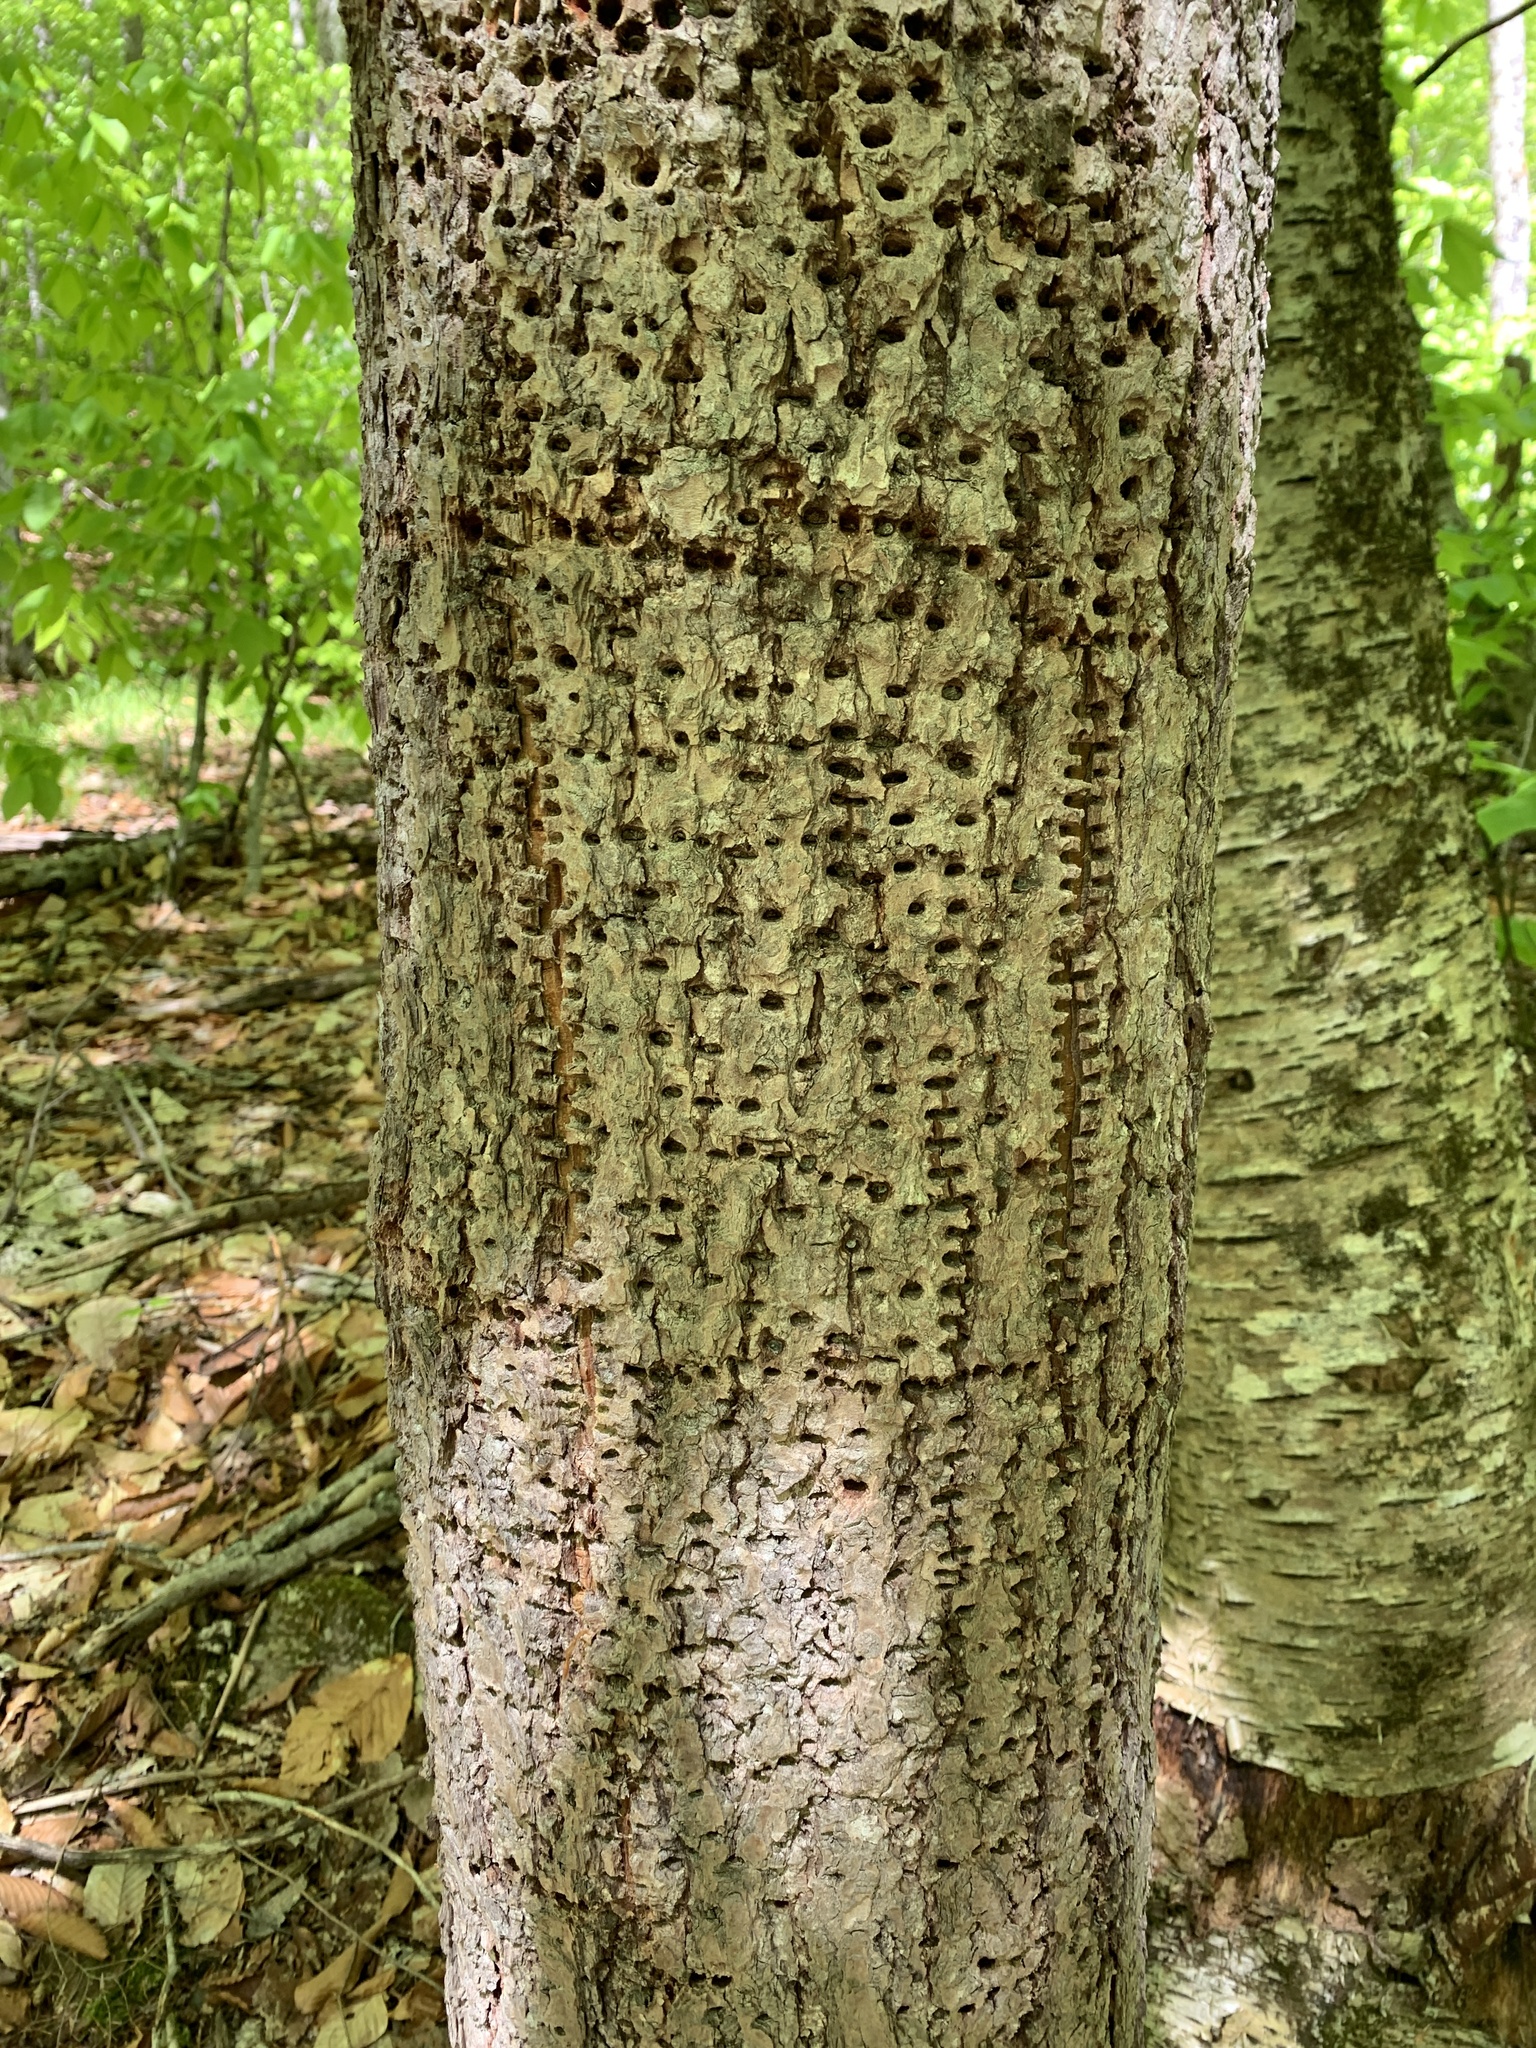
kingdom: Animalia
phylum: Chordata
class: Aves
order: Piciformes
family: Picidae
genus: Sphyrapicus
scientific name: Sphyrapicus varius
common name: Yellow-bellied sapsucker
